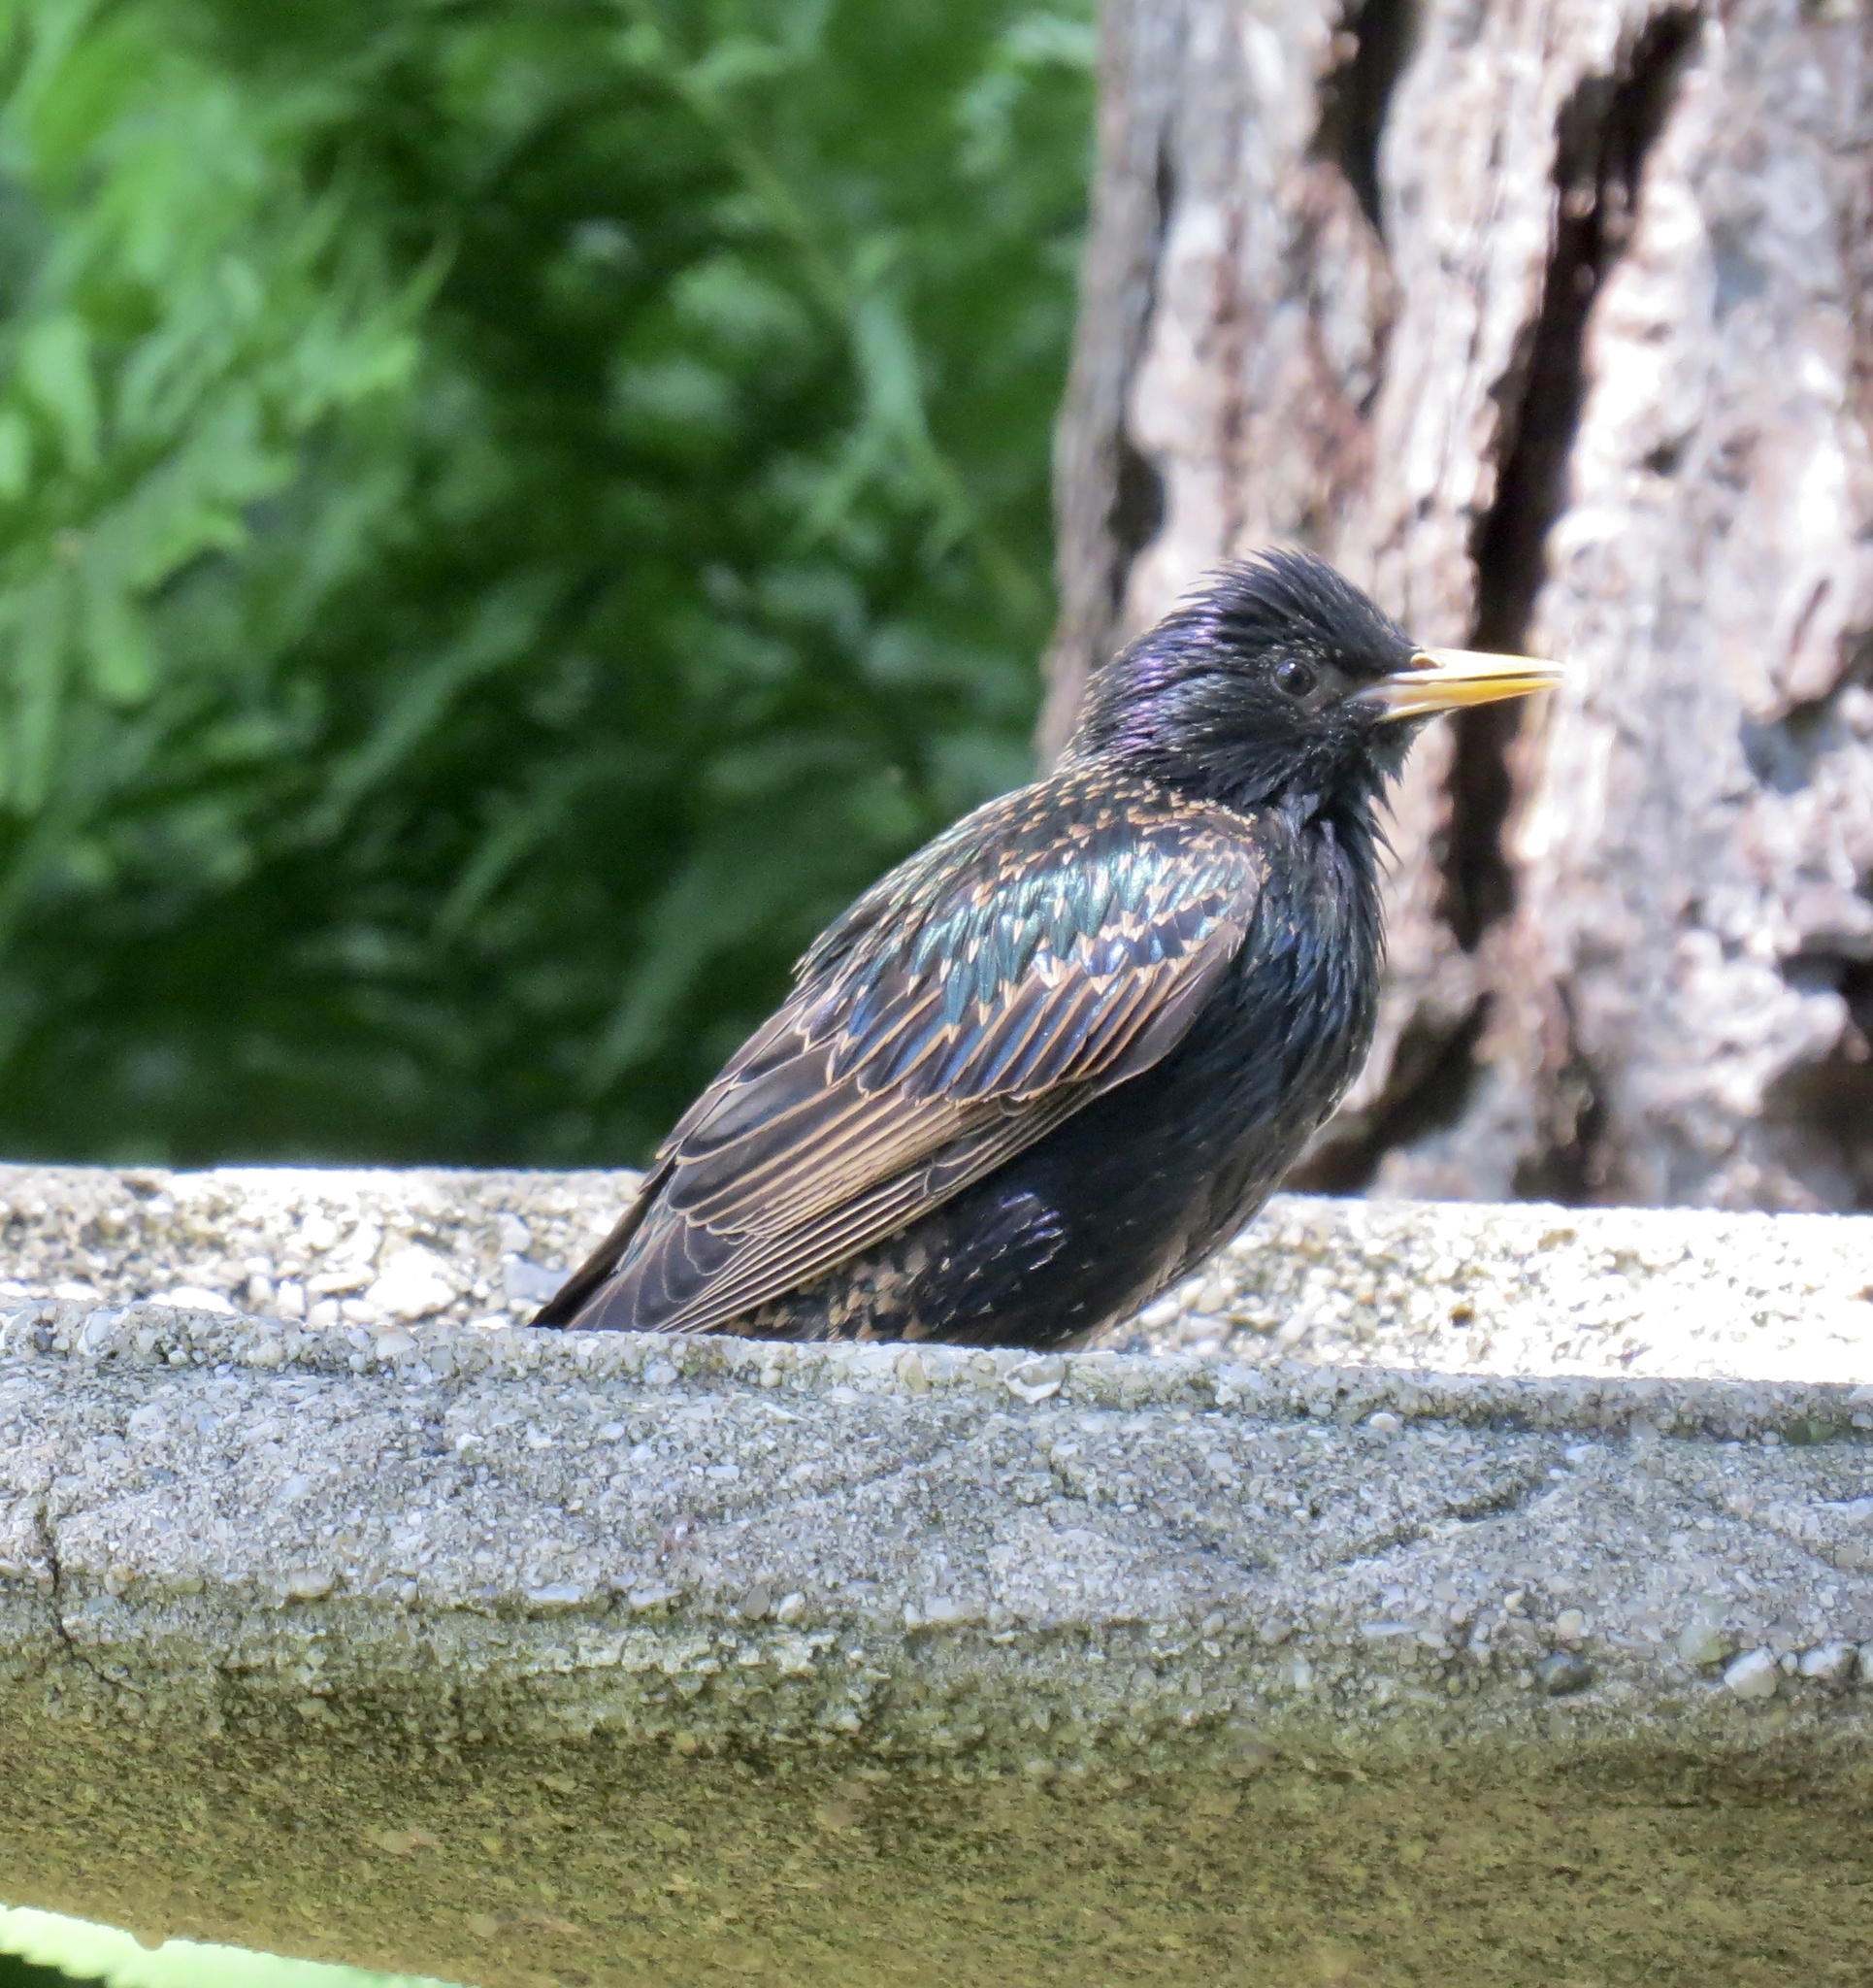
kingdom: Animalia
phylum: Chordata
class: Aves
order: Passeriformes
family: Sturnidae
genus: Sturnus
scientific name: Sturnus vulgaris
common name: Common starling
